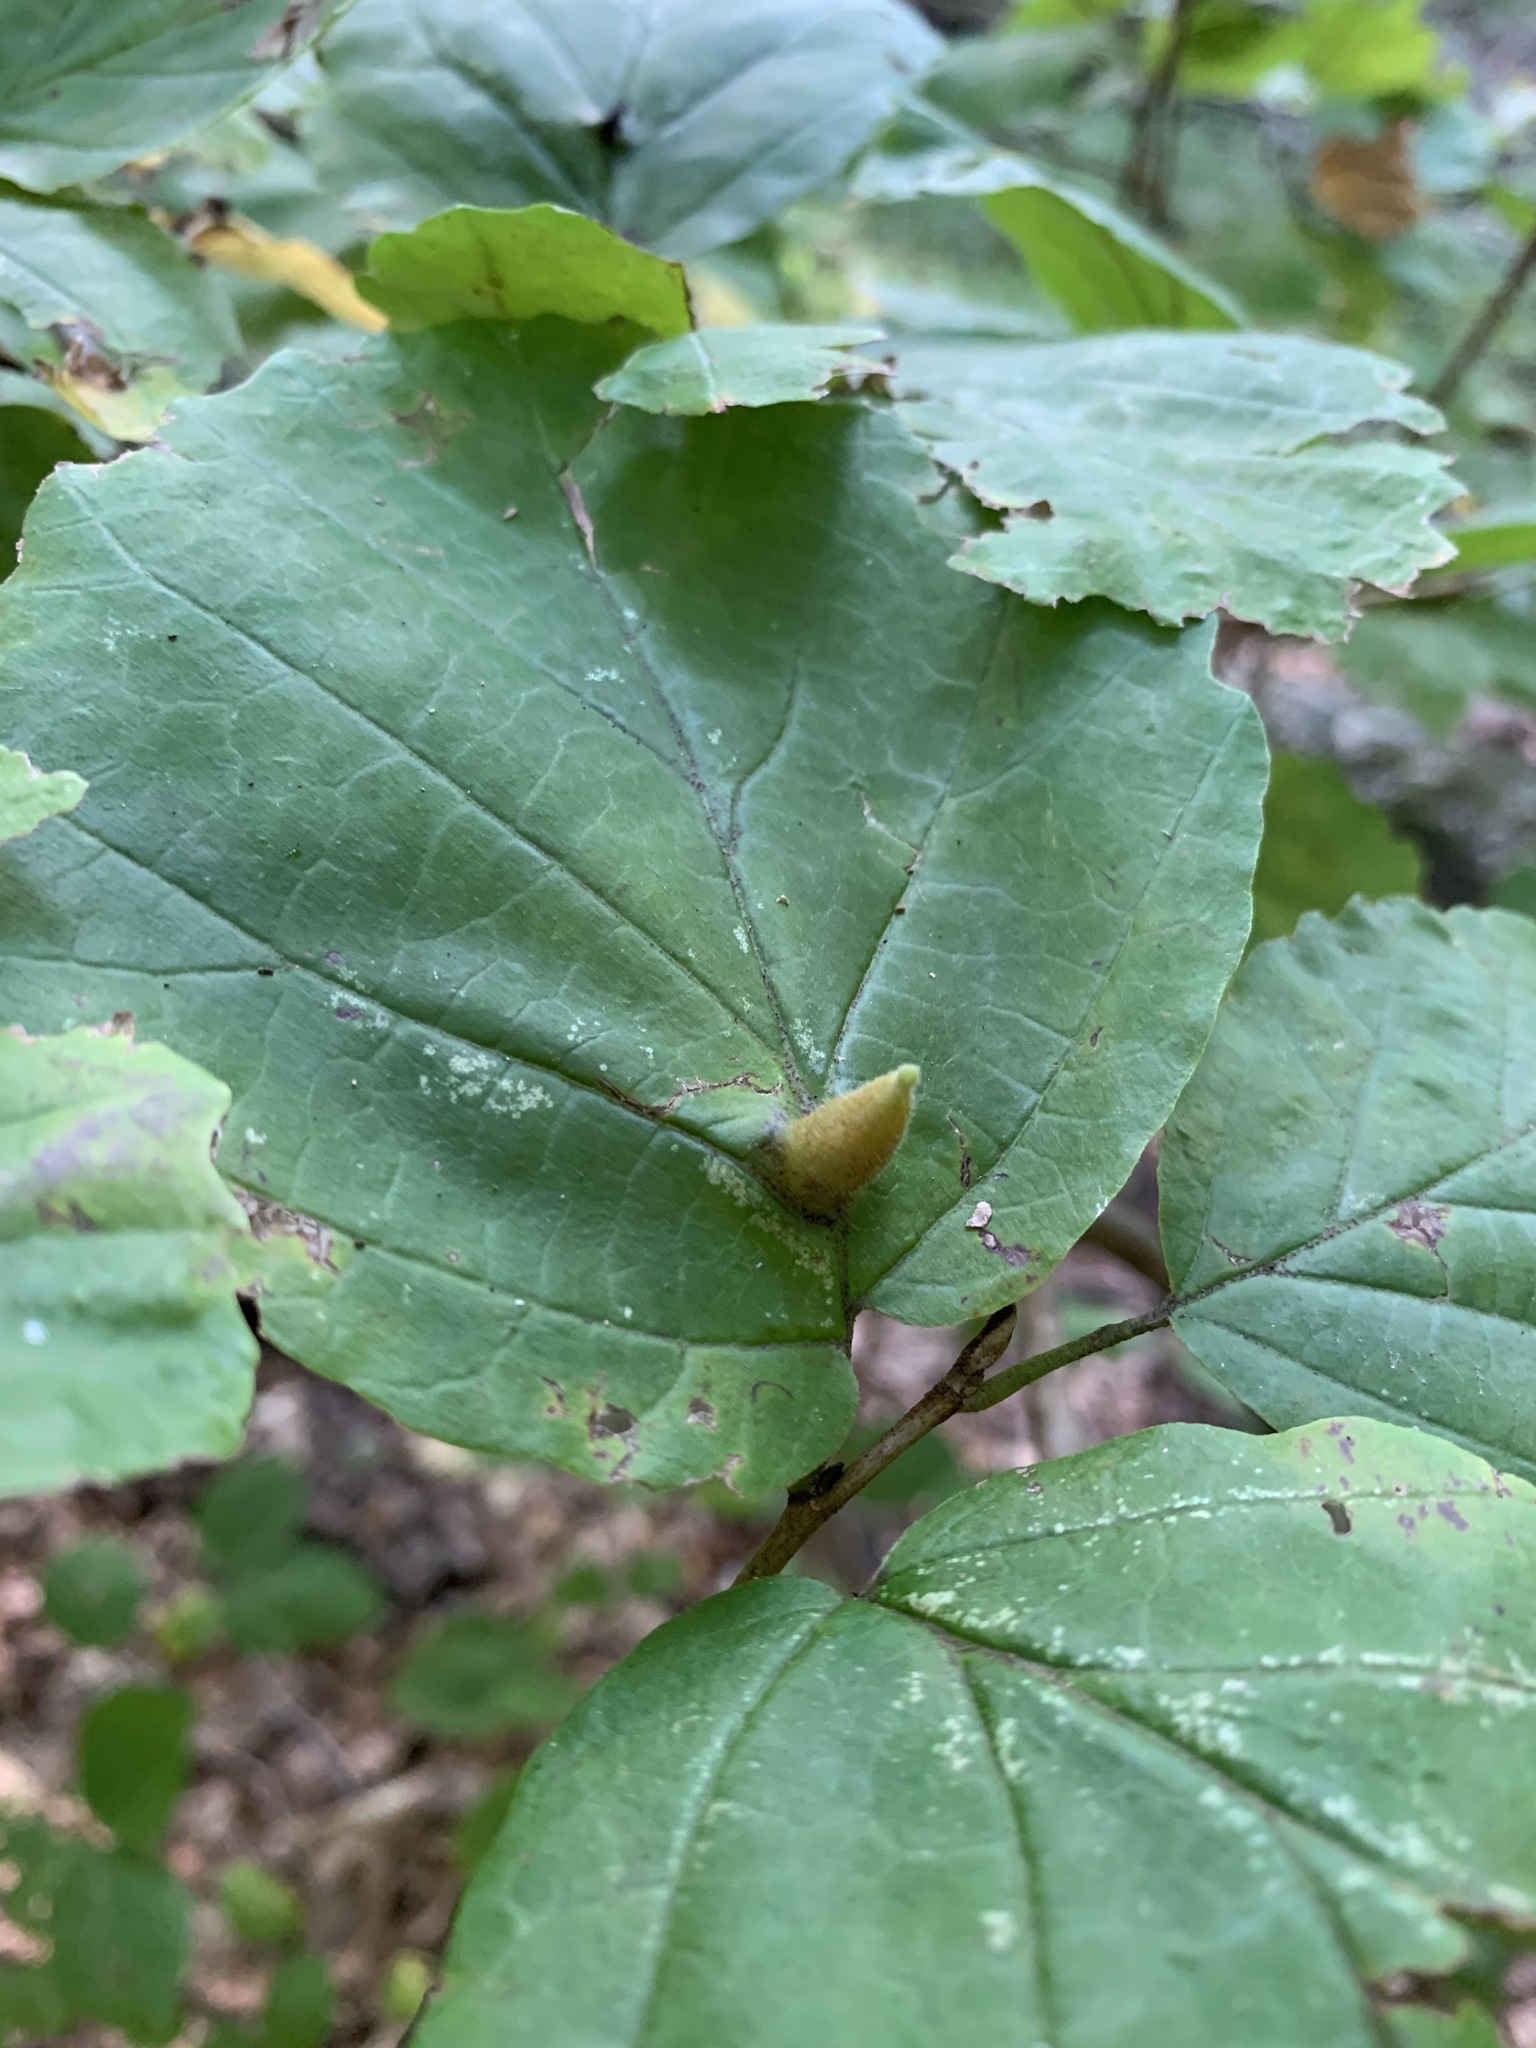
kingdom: Animalia
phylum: Arthropoda
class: Insecta
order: Hemiptera
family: Aphididae
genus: Hormaphis
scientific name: Hormaphis hamamelidis
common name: Witch-hazel cone gall aphid
